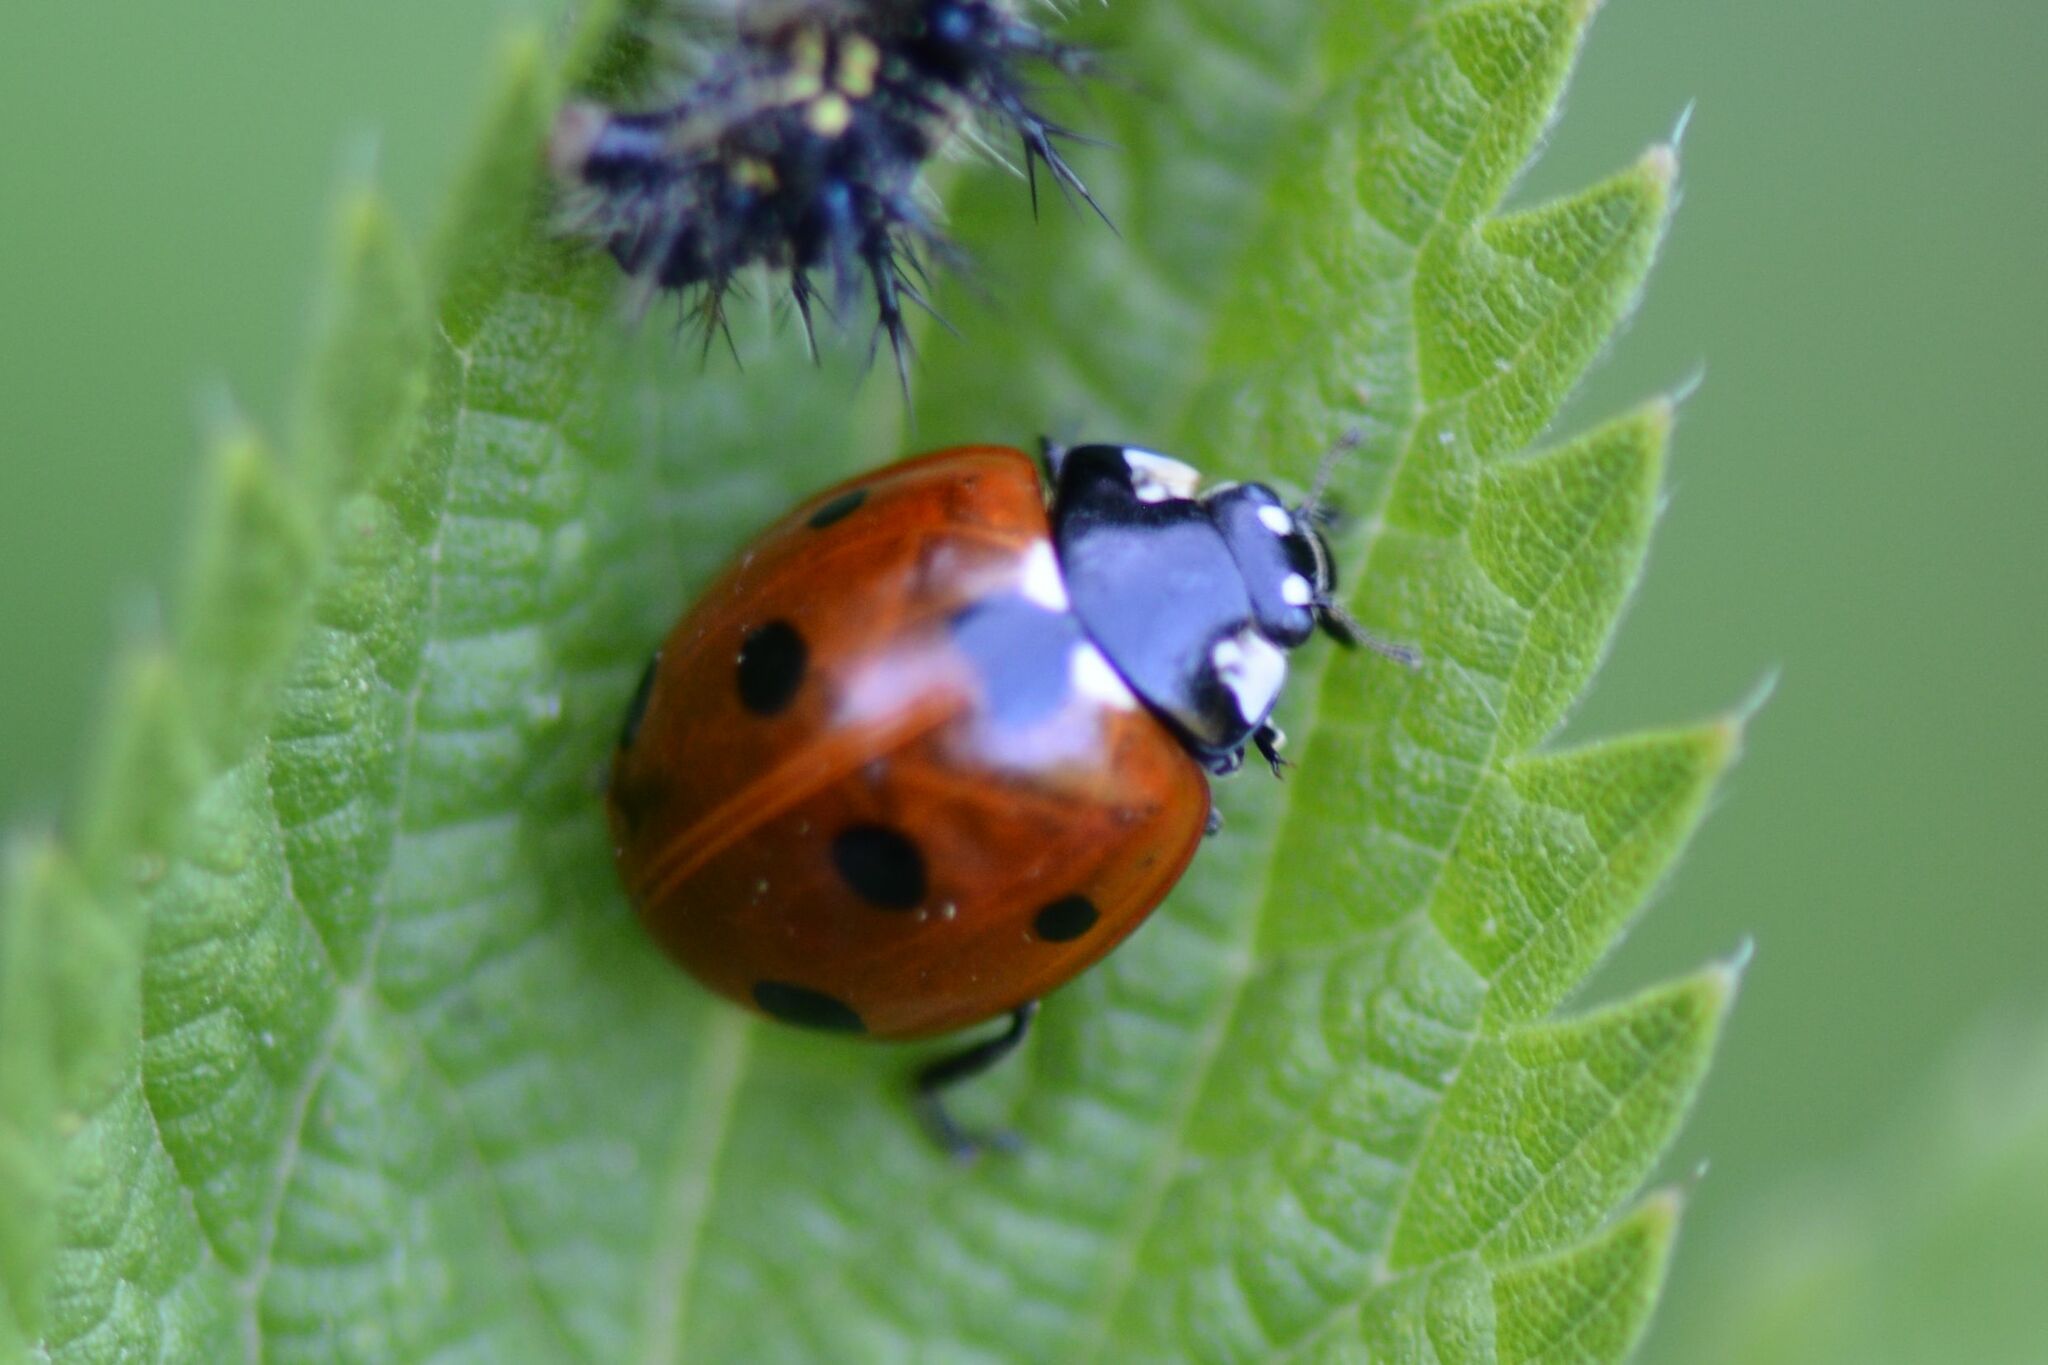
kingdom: Animalia
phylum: Arthropoda
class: Insecta
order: Coleoptera
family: Coccinellidae
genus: Coccinella
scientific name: Coccinella septempunctata
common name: Sevenspotted lady beetle
